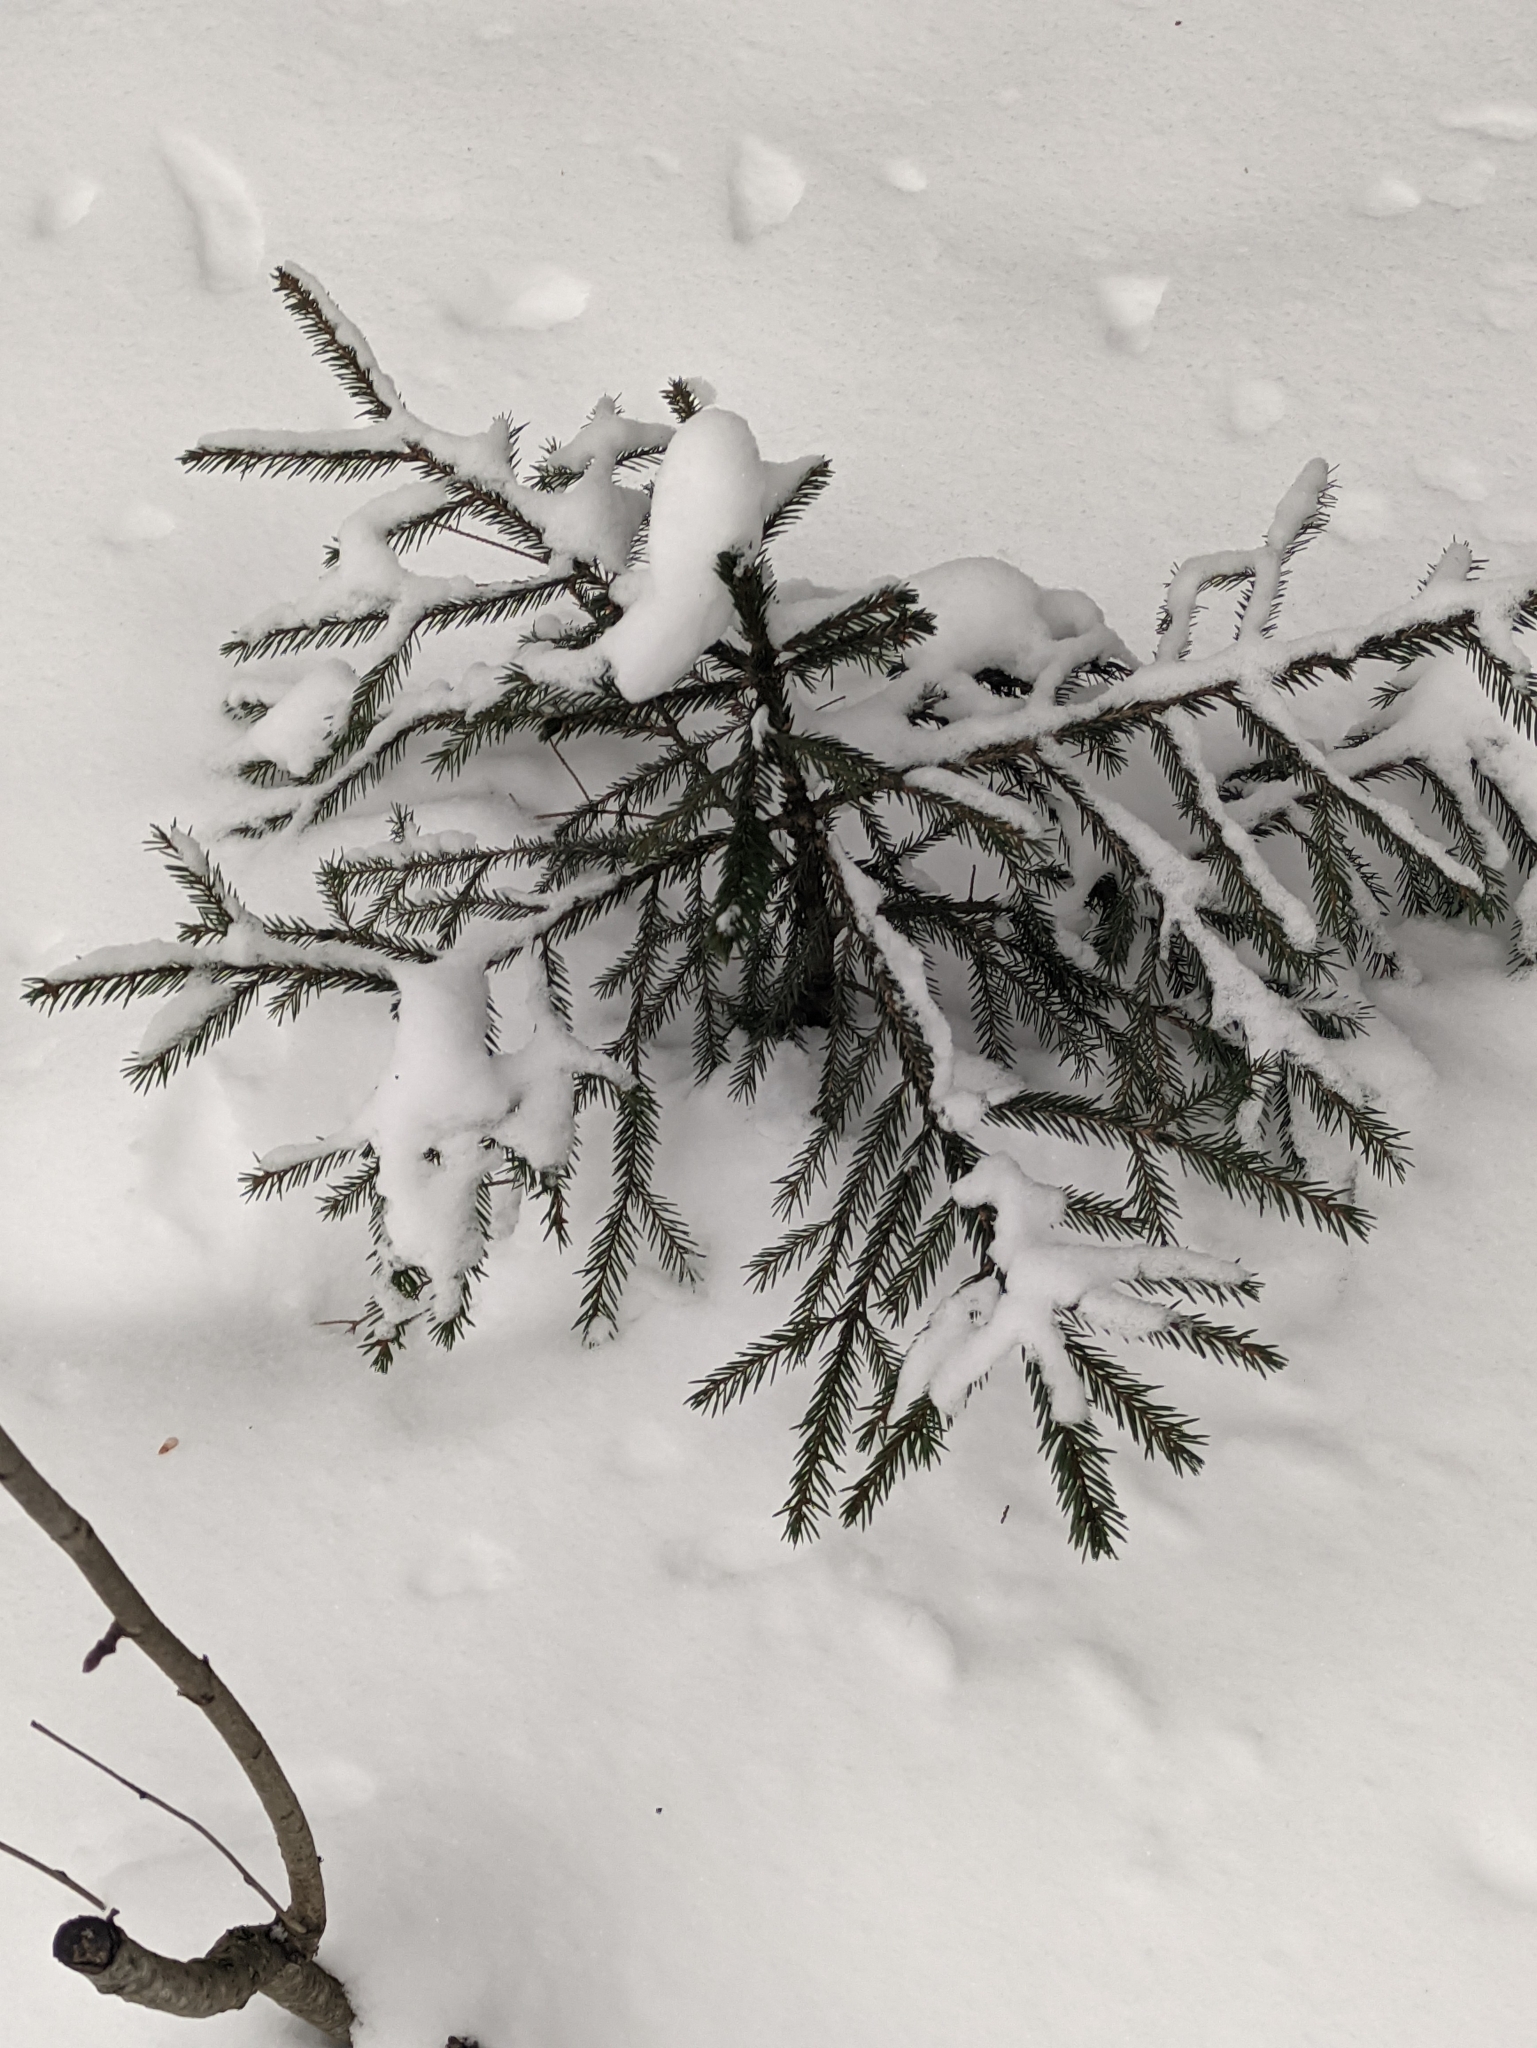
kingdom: Plantae
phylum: Tracheophyta
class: Pinopsida
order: Pinales
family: Pinaceae
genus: Picea
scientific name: Picea abies
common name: Norway spruce
